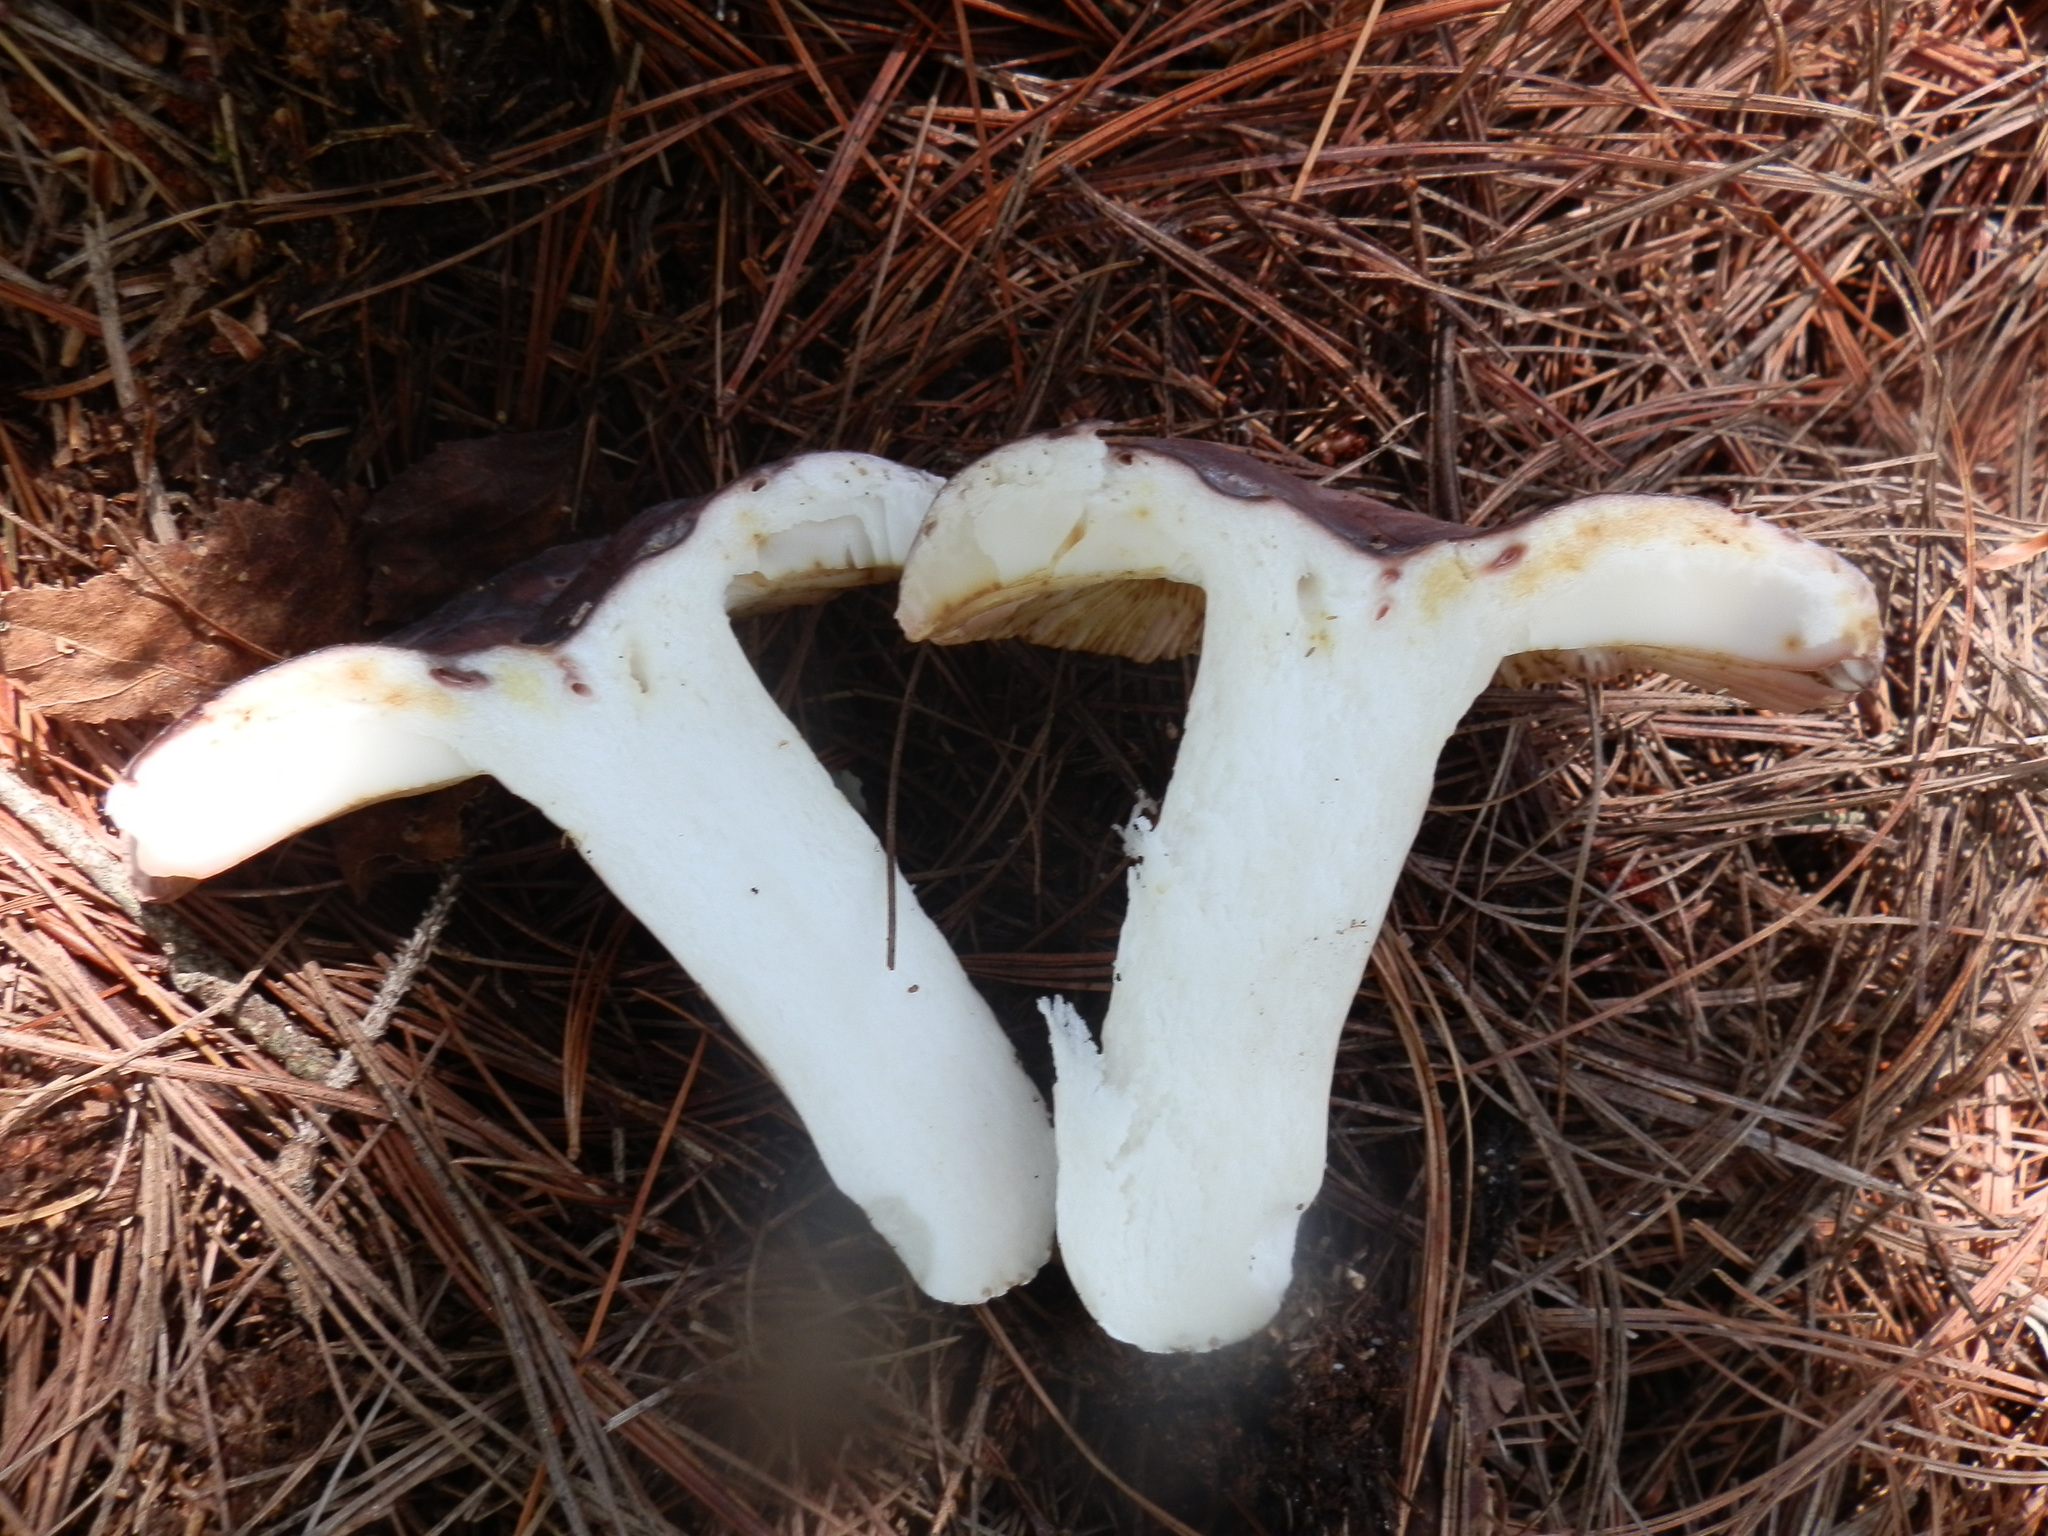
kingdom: Fungi
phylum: Basidiomycota
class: Agaricomycetes
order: Russulales
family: Russulaceae
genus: Russula
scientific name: Russula cyanoxantha
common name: Charcoal burner
